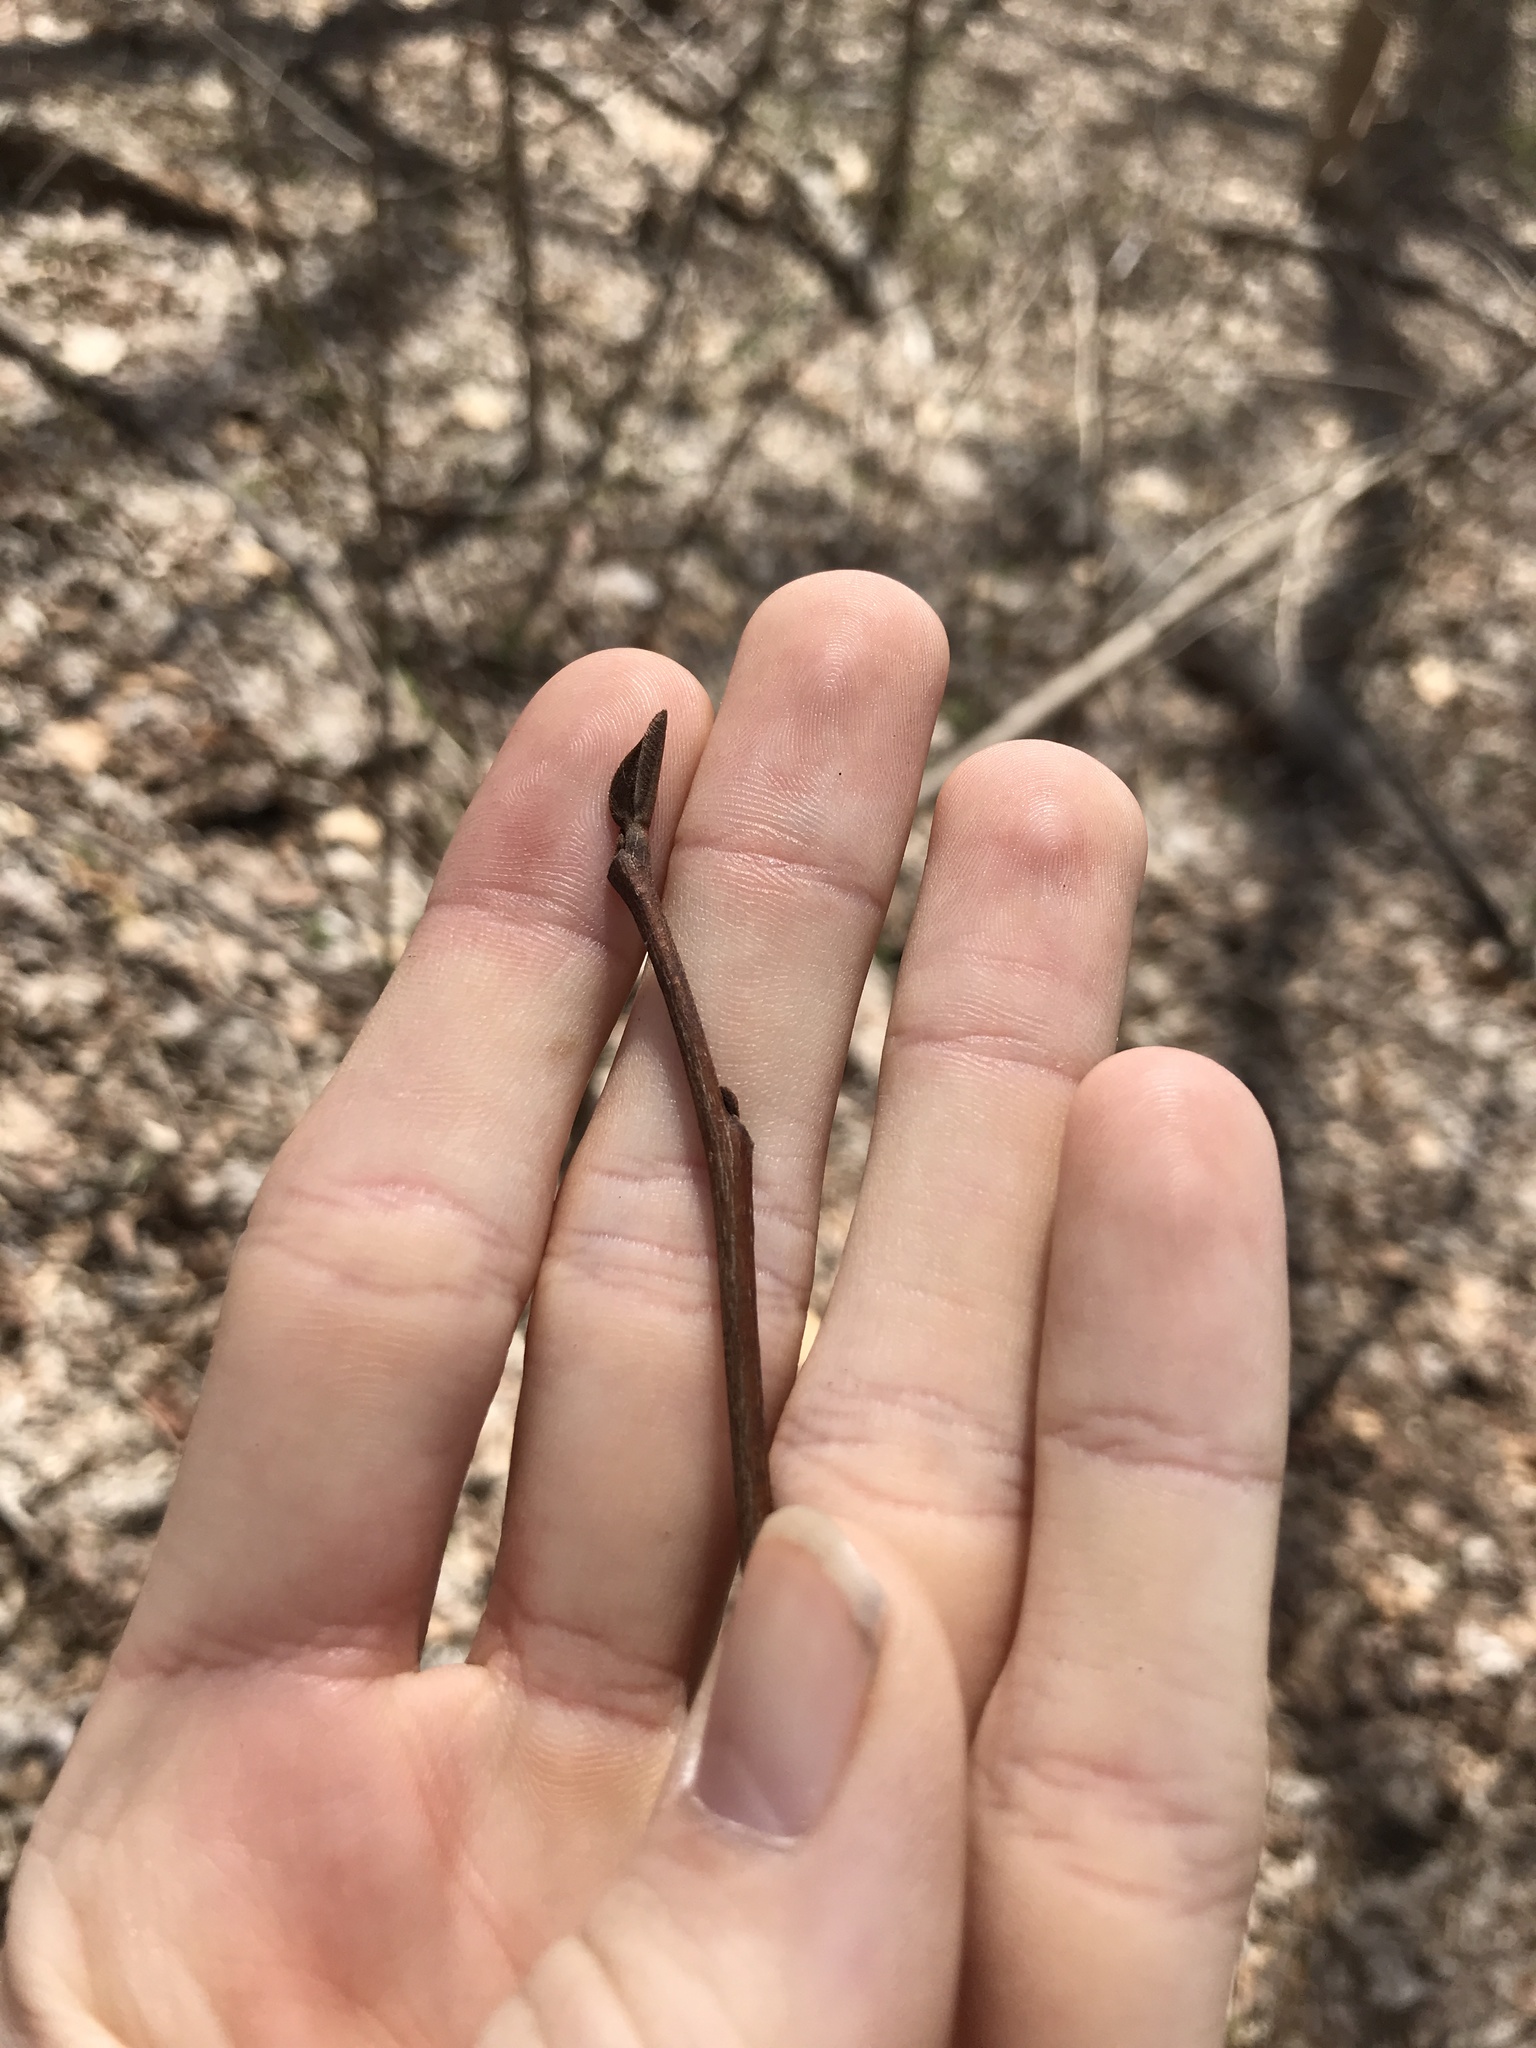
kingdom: Plantae
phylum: Tracheophyta
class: Magnoliopsida
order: Magnoliales
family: Annonaceae
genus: Asimina
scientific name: Asimina triloba
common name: Dog-banana
